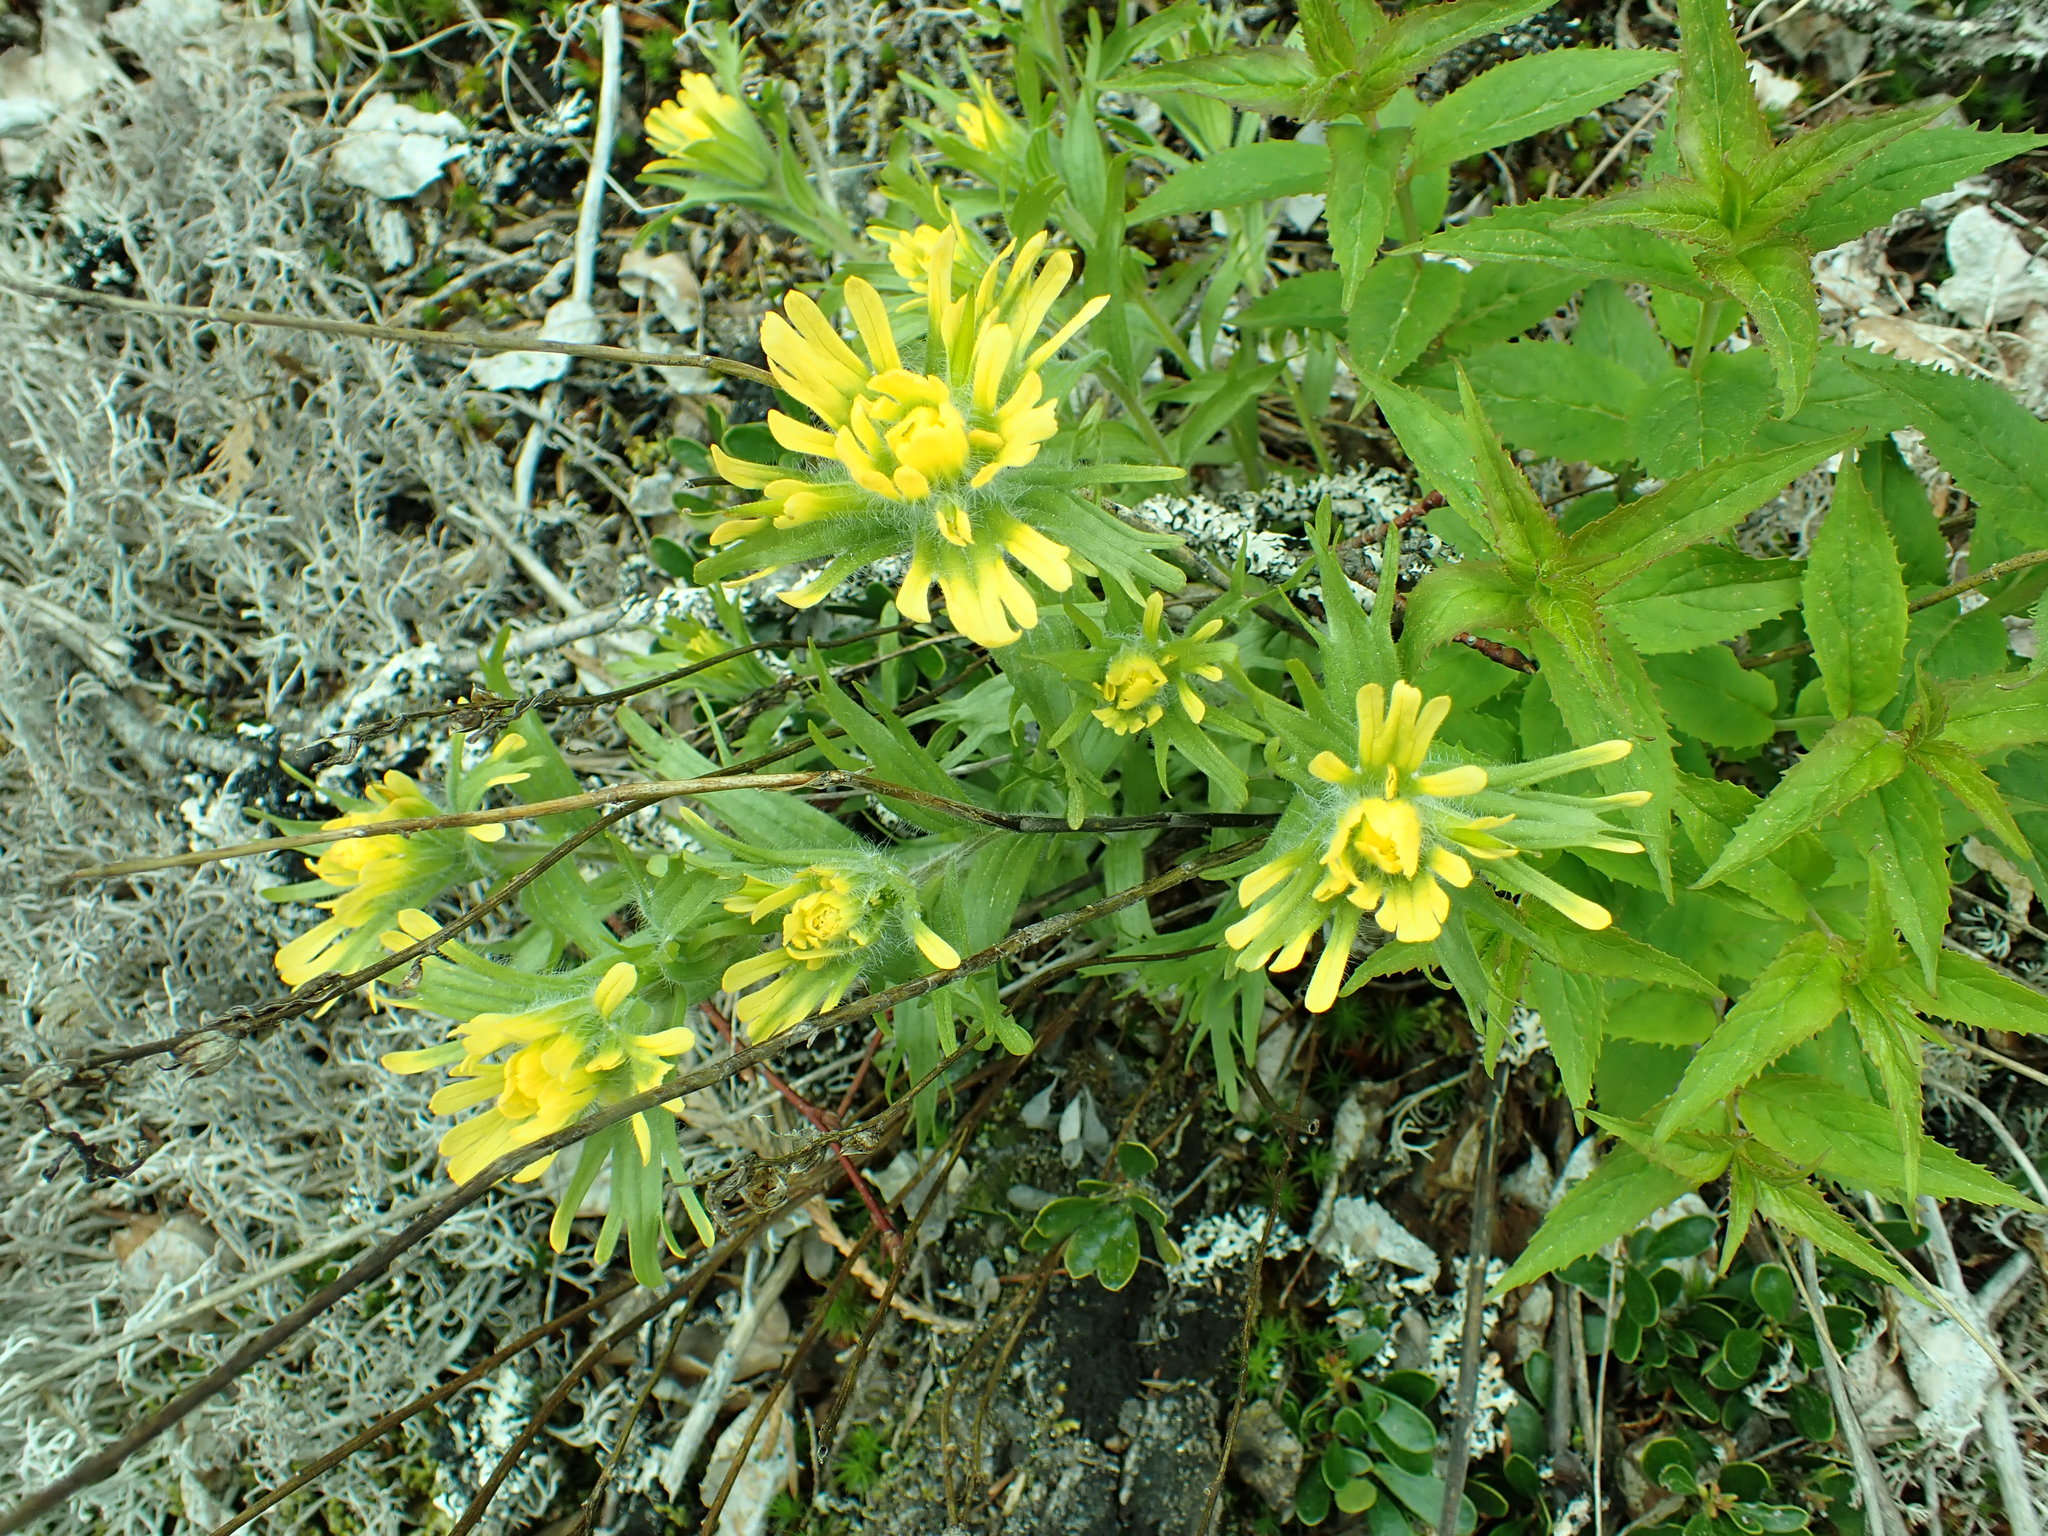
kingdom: Plantae
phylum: Tracheophyta
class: Magnoliopsida
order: Lamiales
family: Orobanchaceae
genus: Castilleja
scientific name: Castilleja hispida
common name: Bristly paintbrush
